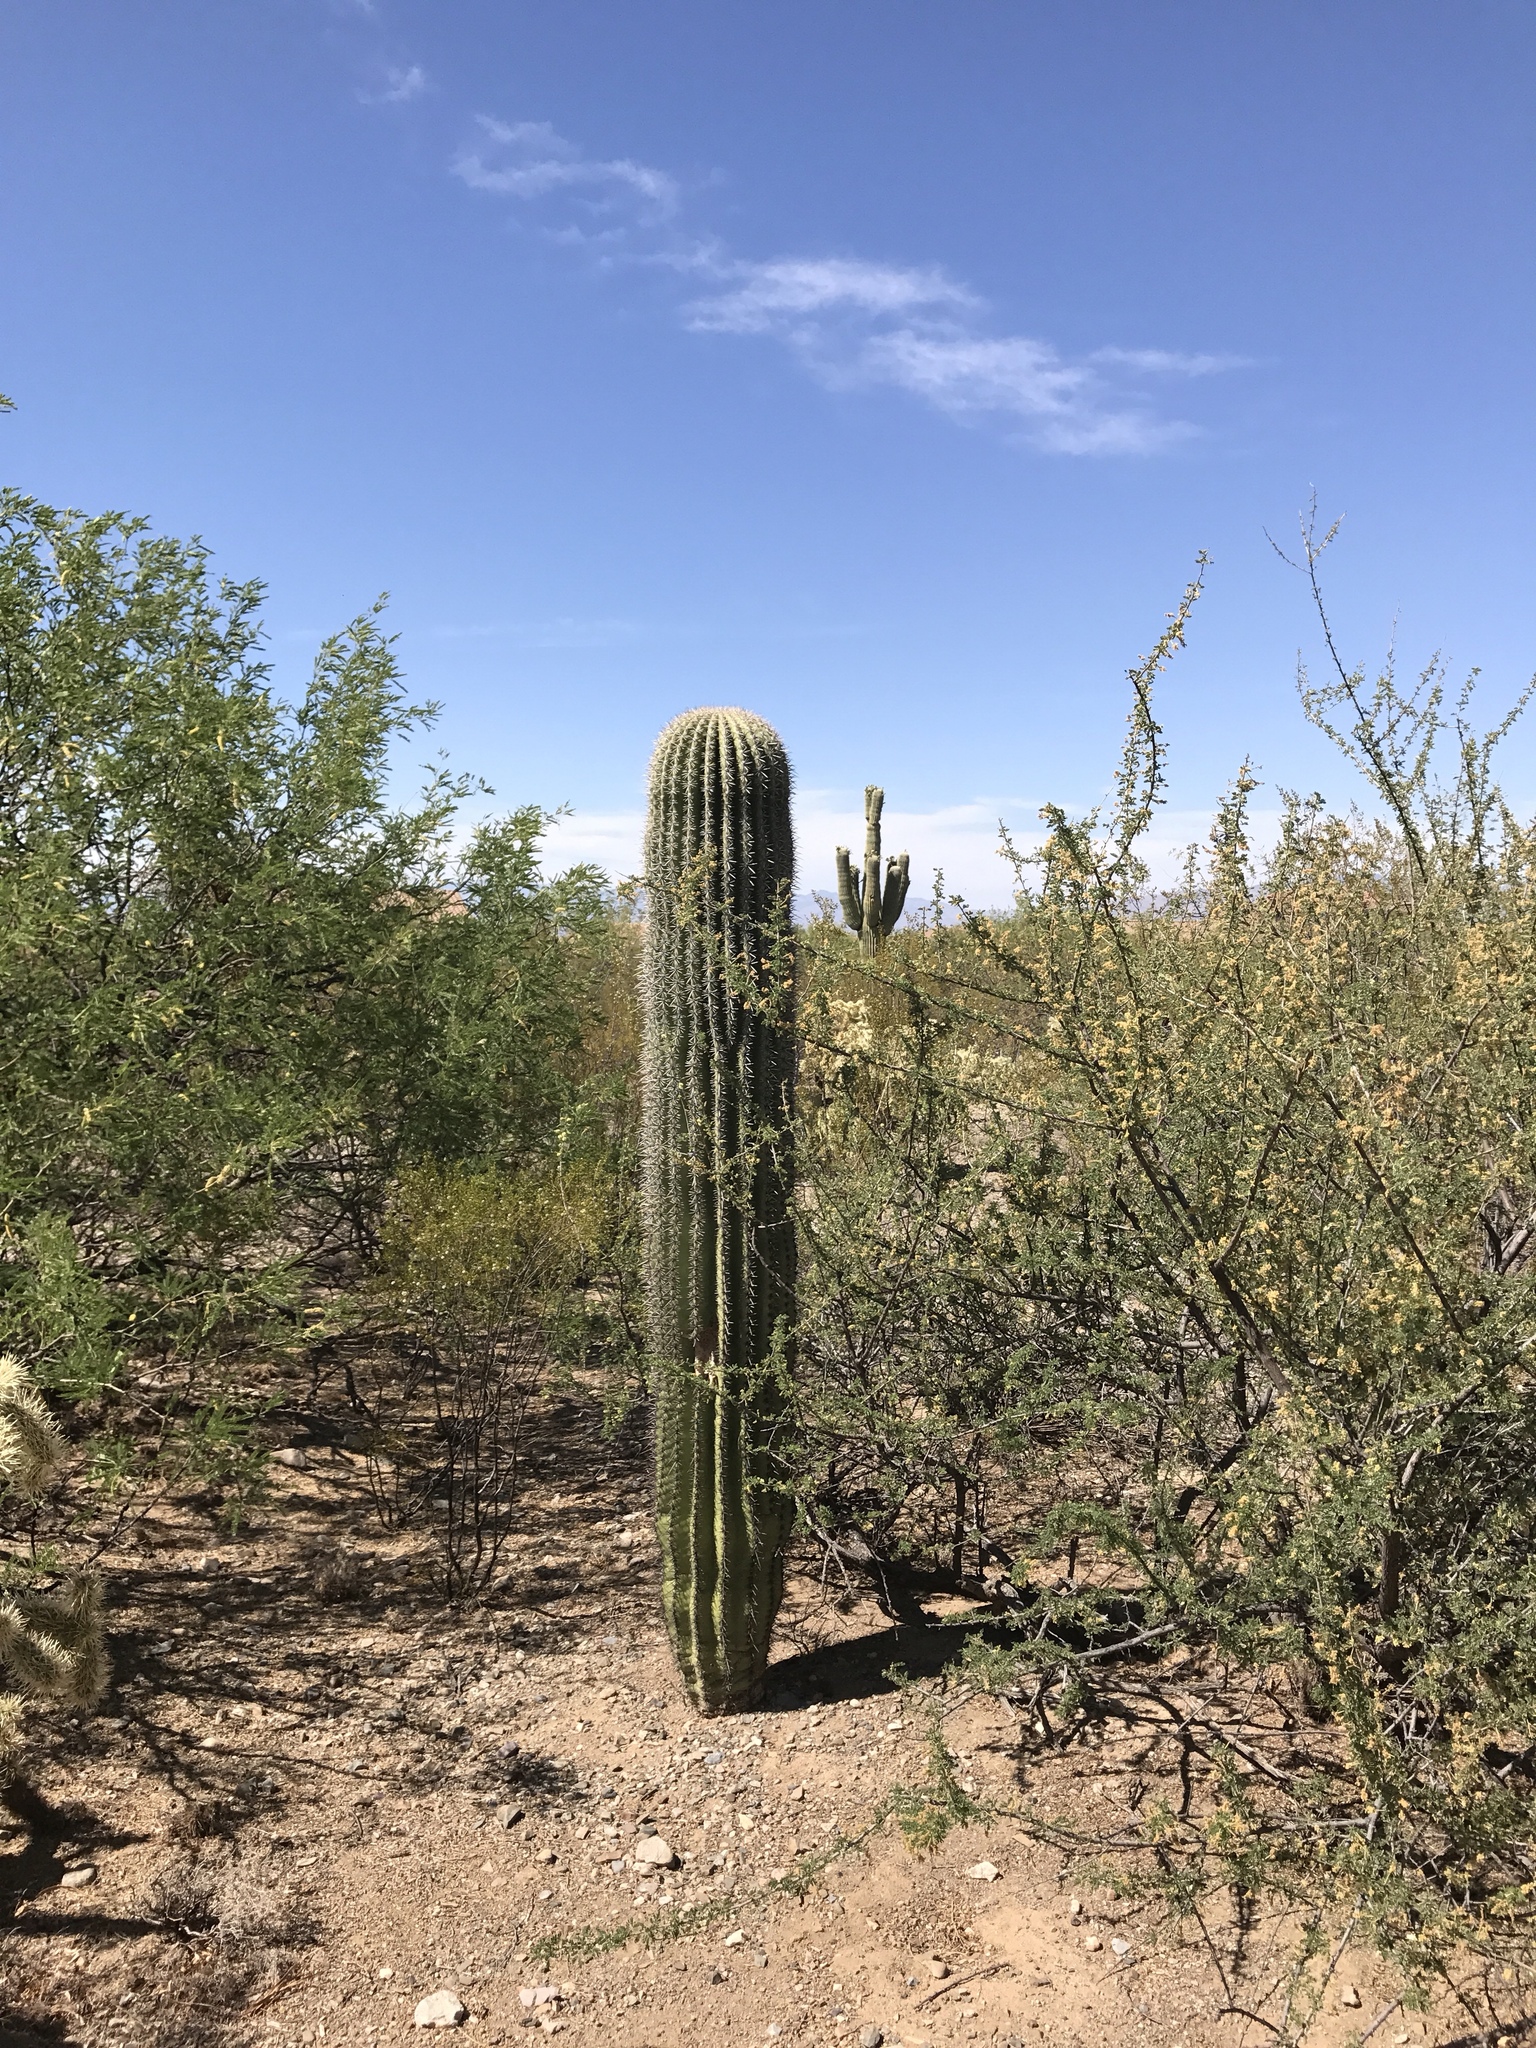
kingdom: Plantae
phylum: Tracheophyta
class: Magnoliopsida
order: Caryophyllales
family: Cactaceae
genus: Carnegiea
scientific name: Carnegiea gigantea
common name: Saguaro
